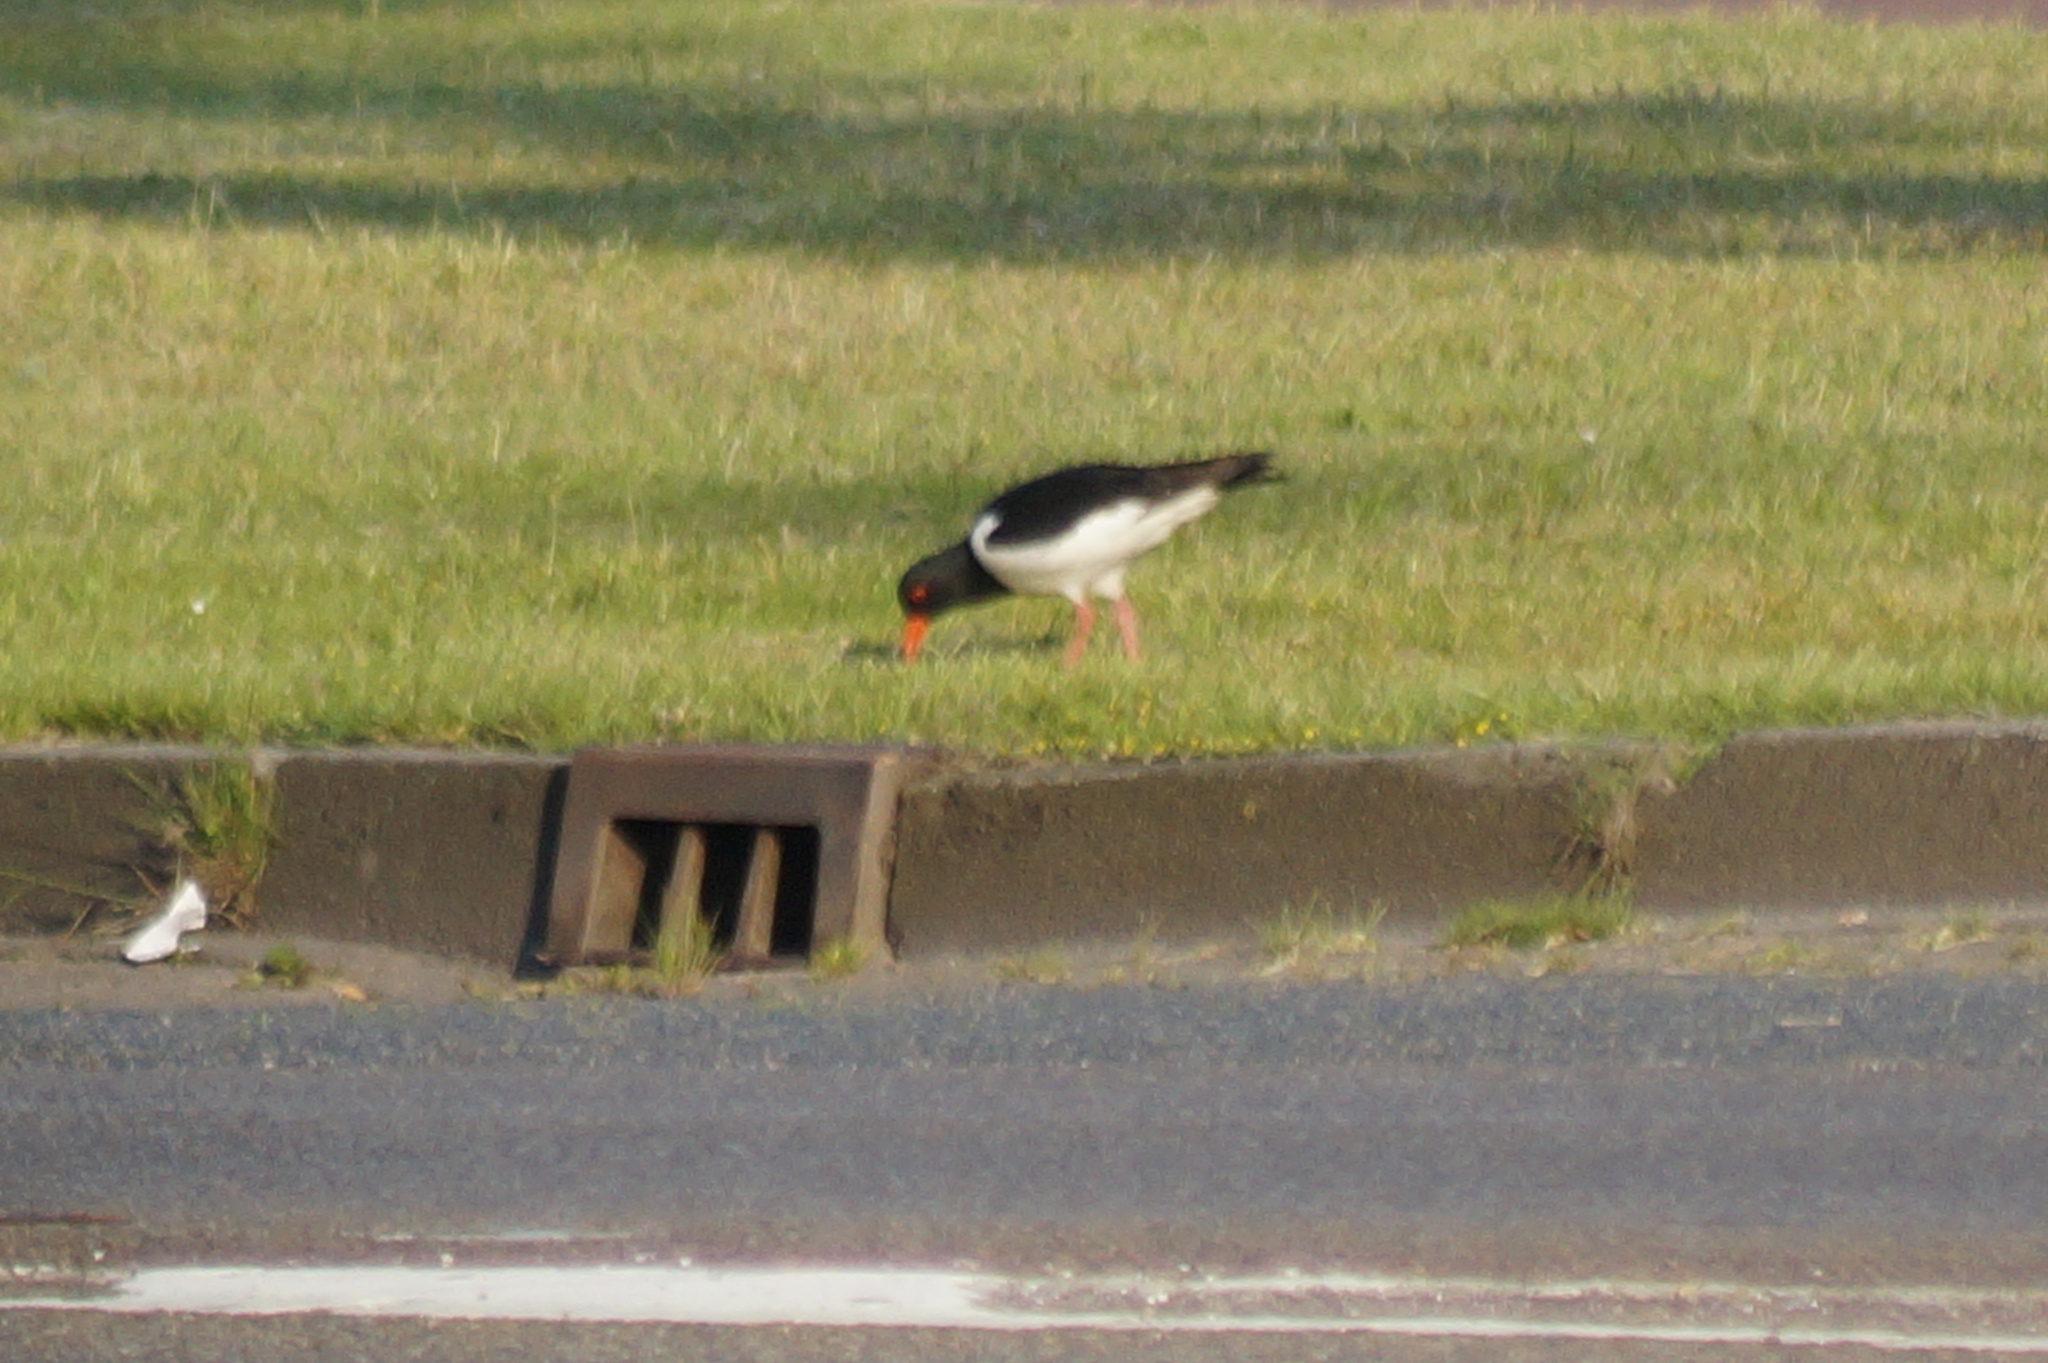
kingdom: Animalia
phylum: Chordata
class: Aves
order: Charadriiformes
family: Haematopodidae
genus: Haematopus
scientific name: Haematopus ostralegus
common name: Eurasian oystercatcher
